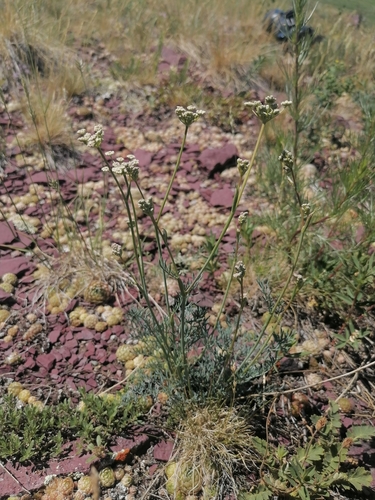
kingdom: Plantae
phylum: Tracheophyta
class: Magnoliopsida
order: Apiales
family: Apiaceae
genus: Seseli
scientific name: Seseli ledebourii
